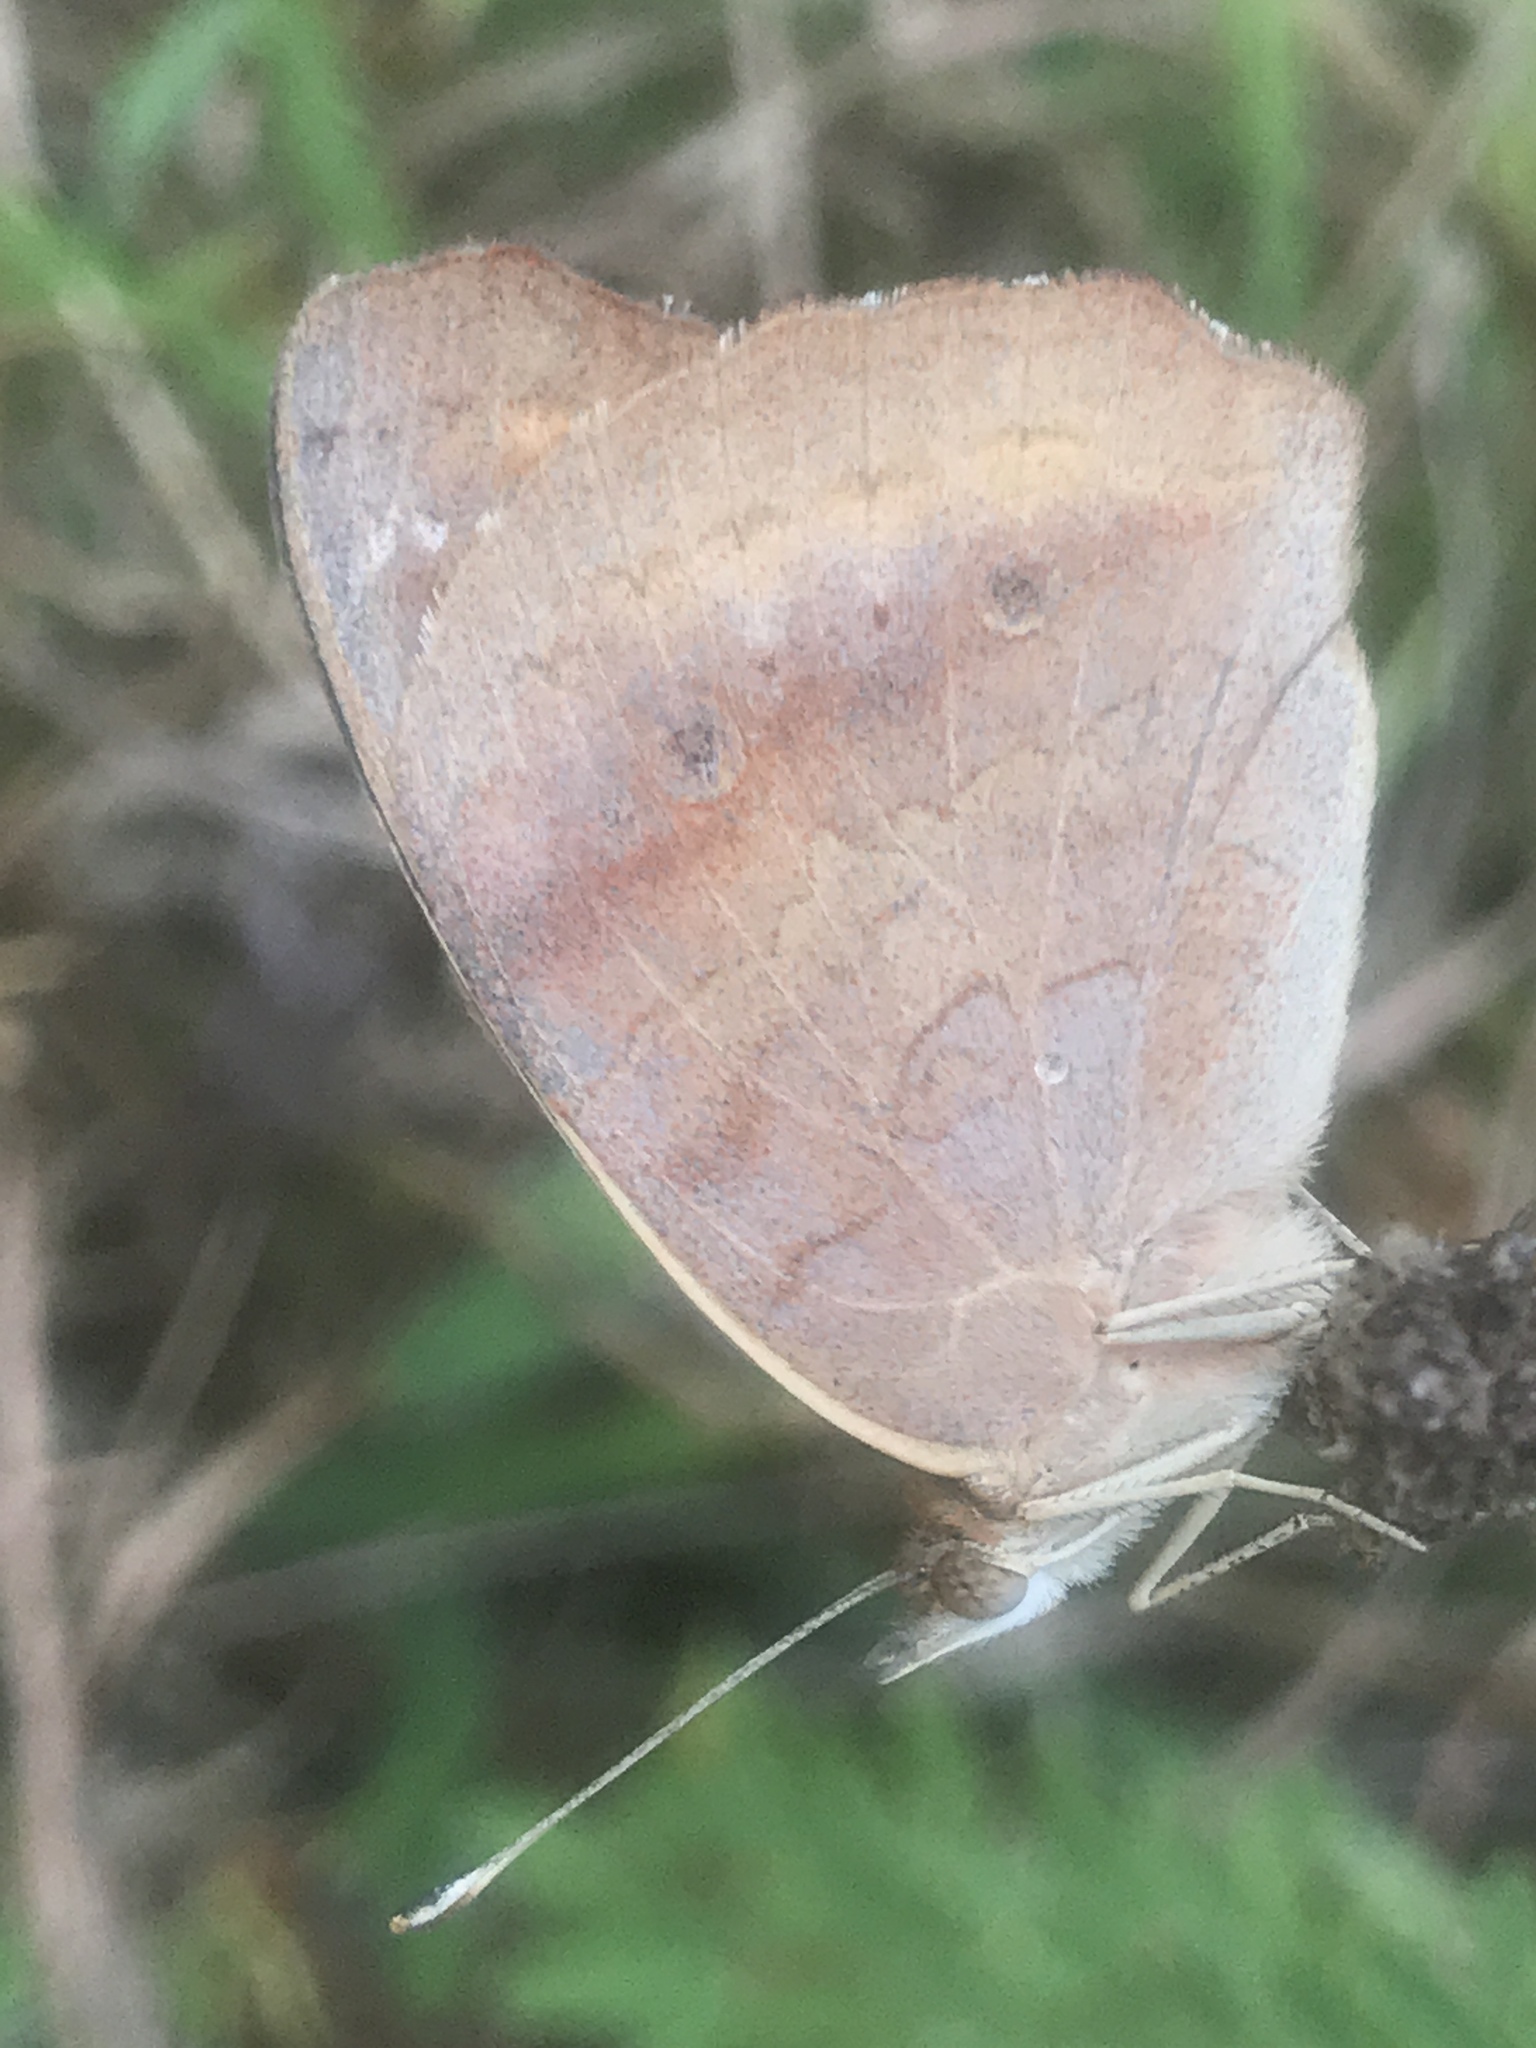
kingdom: Animalia
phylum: Arthropoda
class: Insecta
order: Lepidoptera
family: Nymphalidae
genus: Junonia
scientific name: Junonia coenia
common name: Common buckeye
